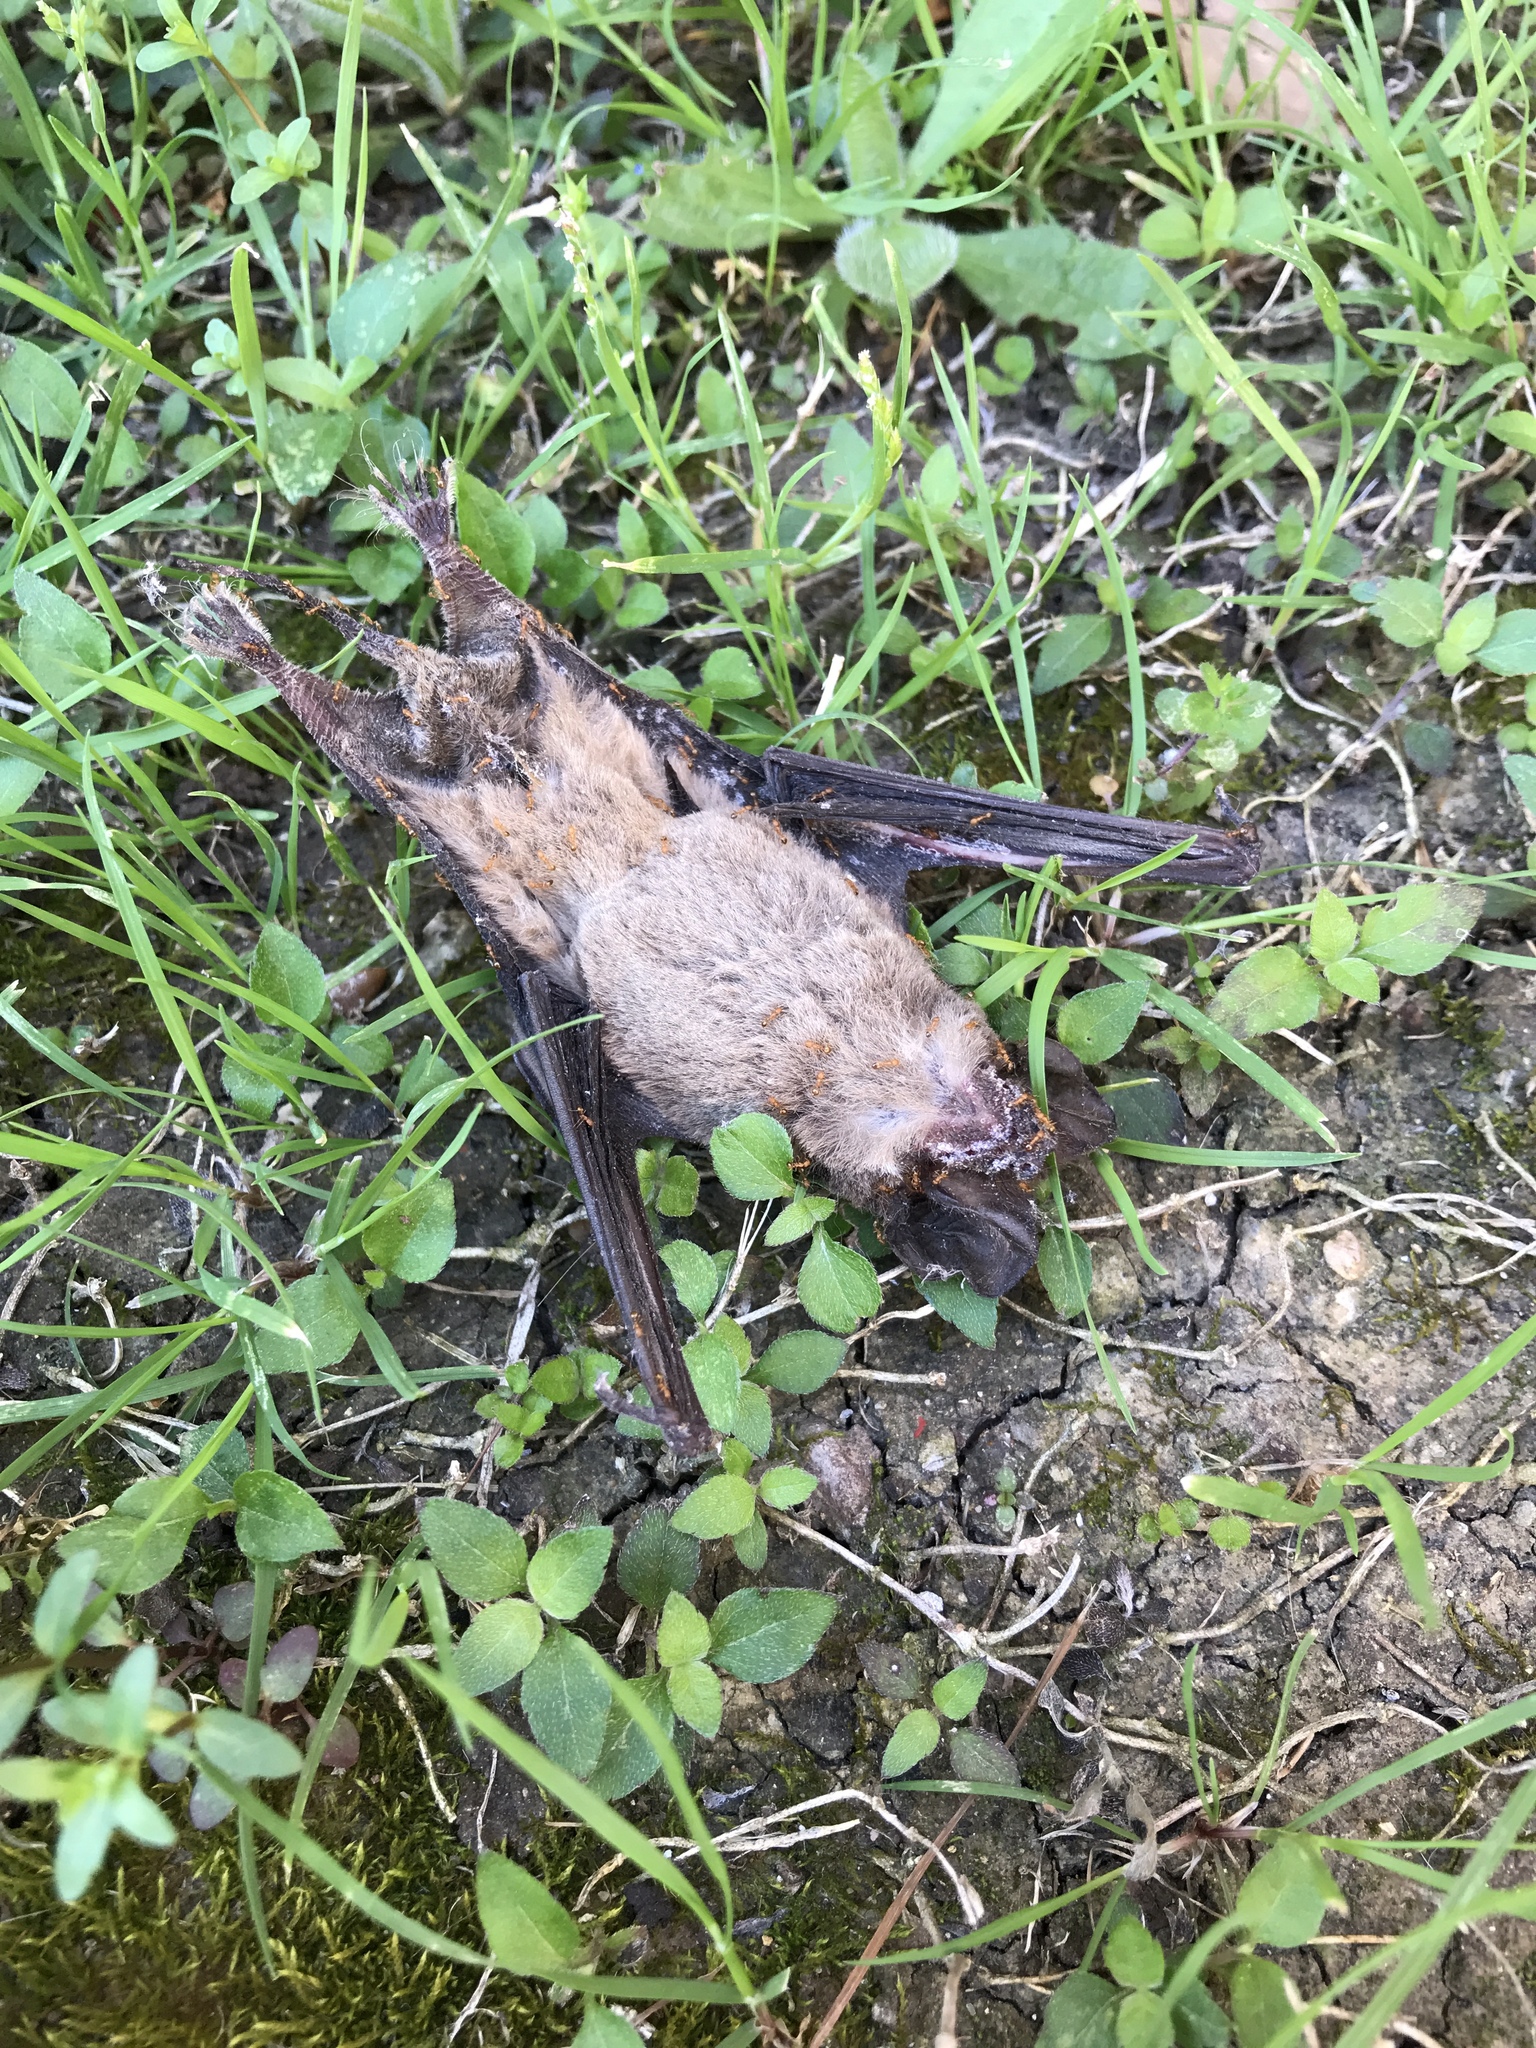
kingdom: Animalia
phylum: Chordata
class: Mammalia
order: Chiroptera
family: Molossidae
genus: Tadarida
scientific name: Tadarida brasiliensis
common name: Mexican free-tailed bat
